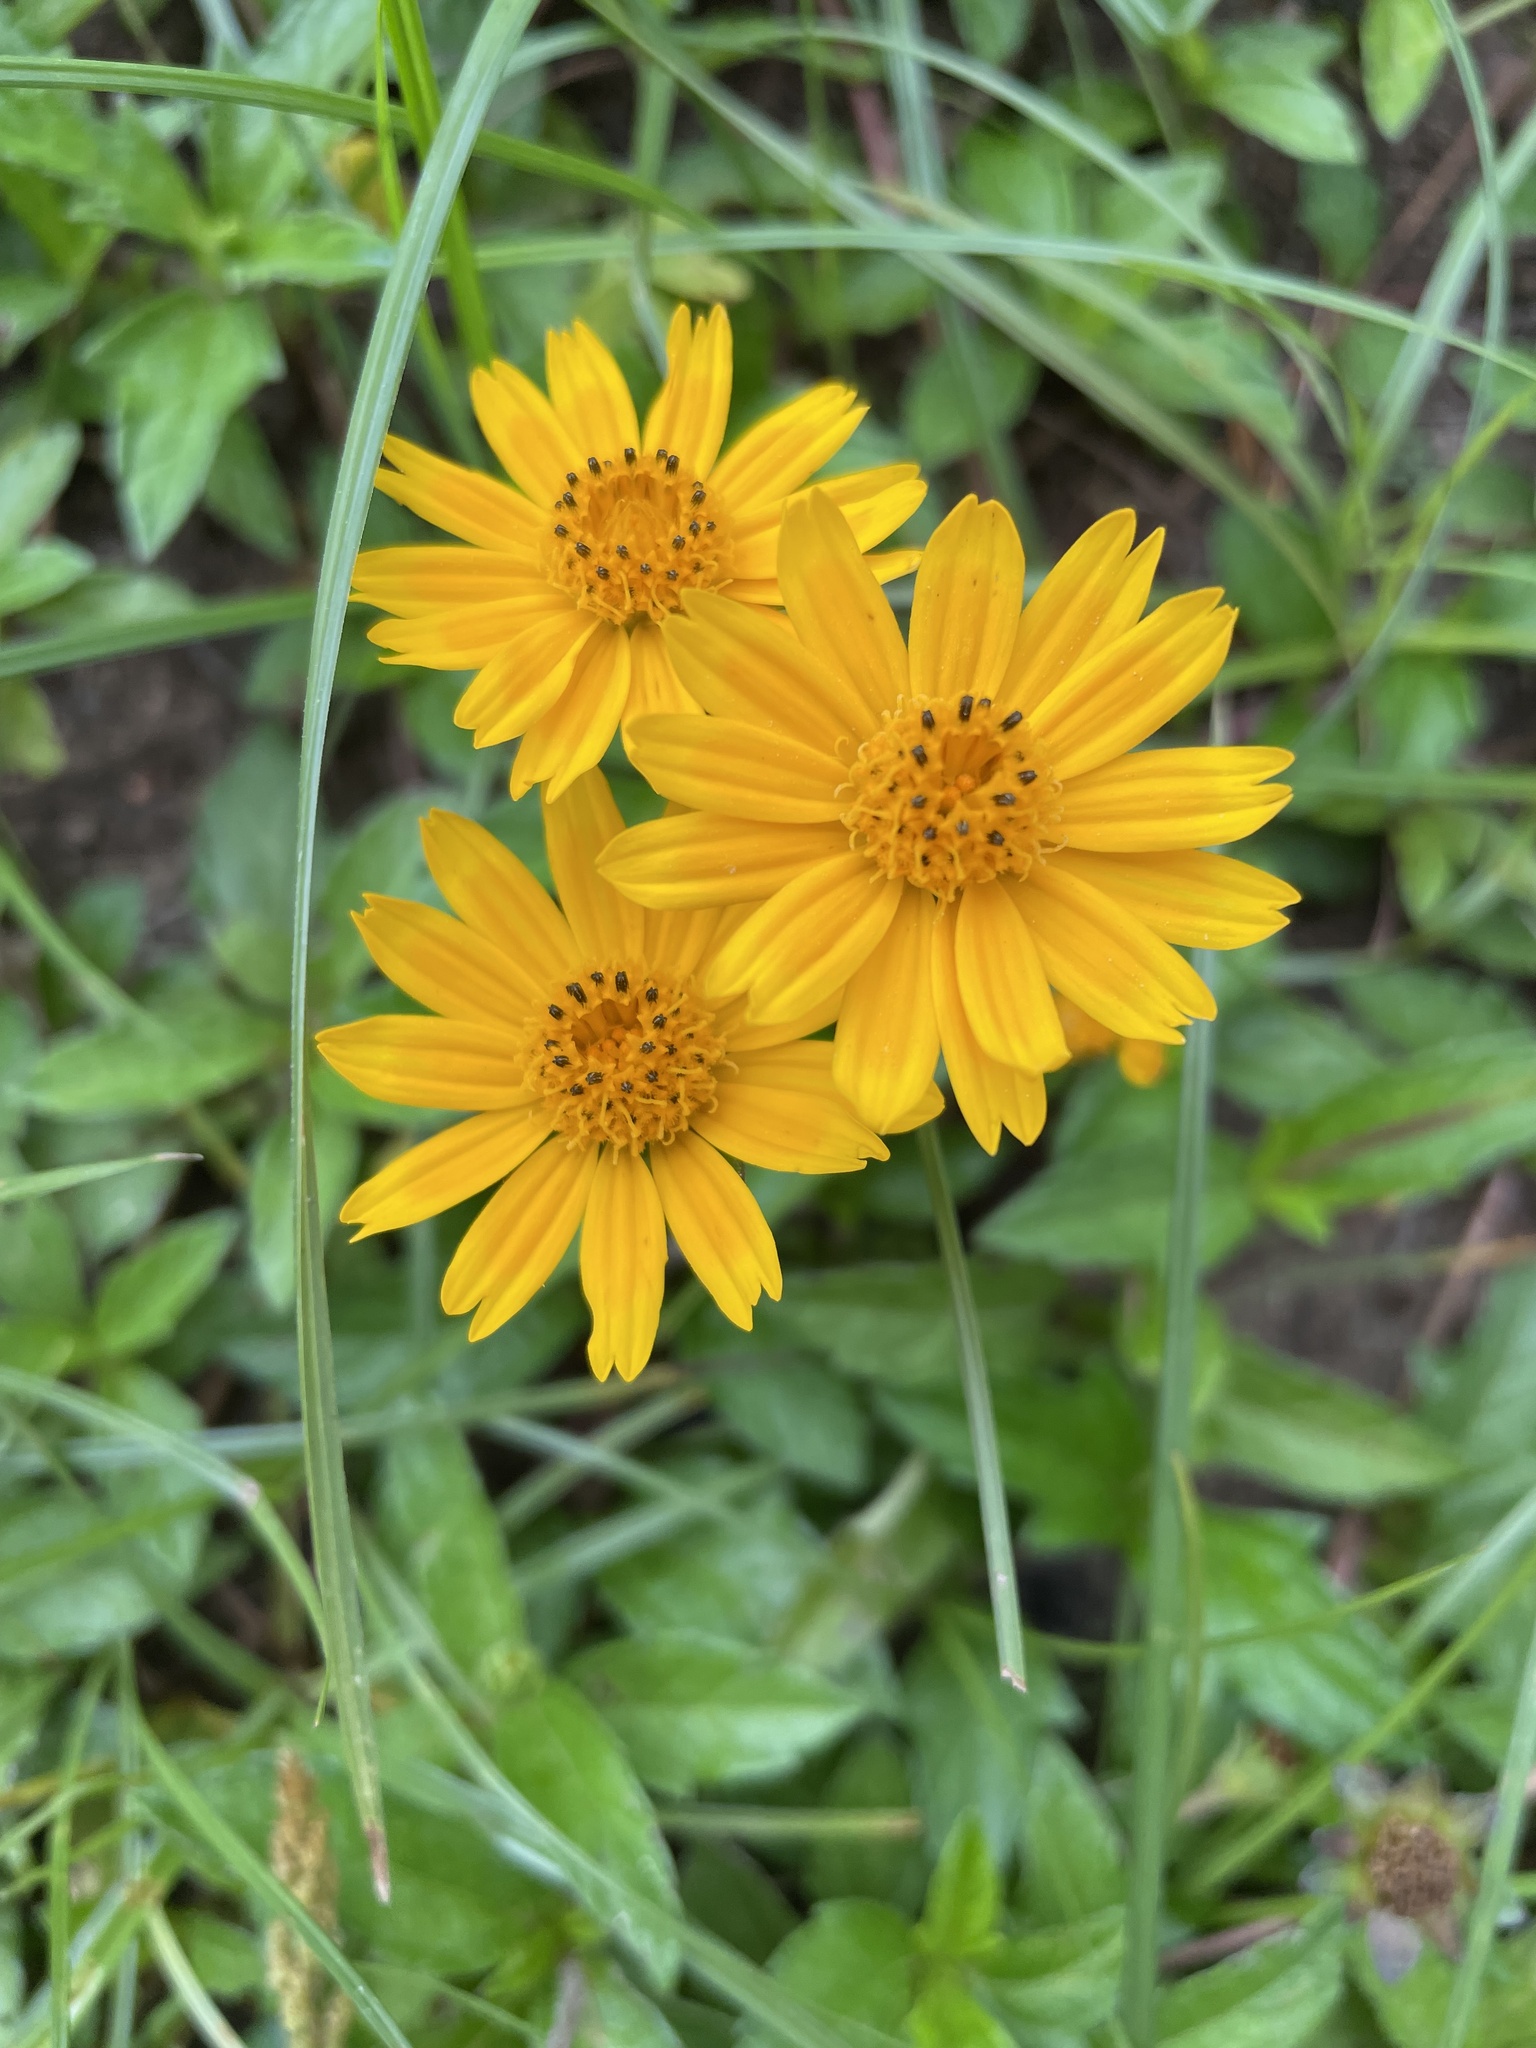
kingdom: Plantae
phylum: Tracheophyta
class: Magnoliopsida
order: Asterales
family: Asteraceae
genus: Sphagneticola
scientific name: Sphagneticola trilobata
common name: Bay biscayne creeping-oxeye
